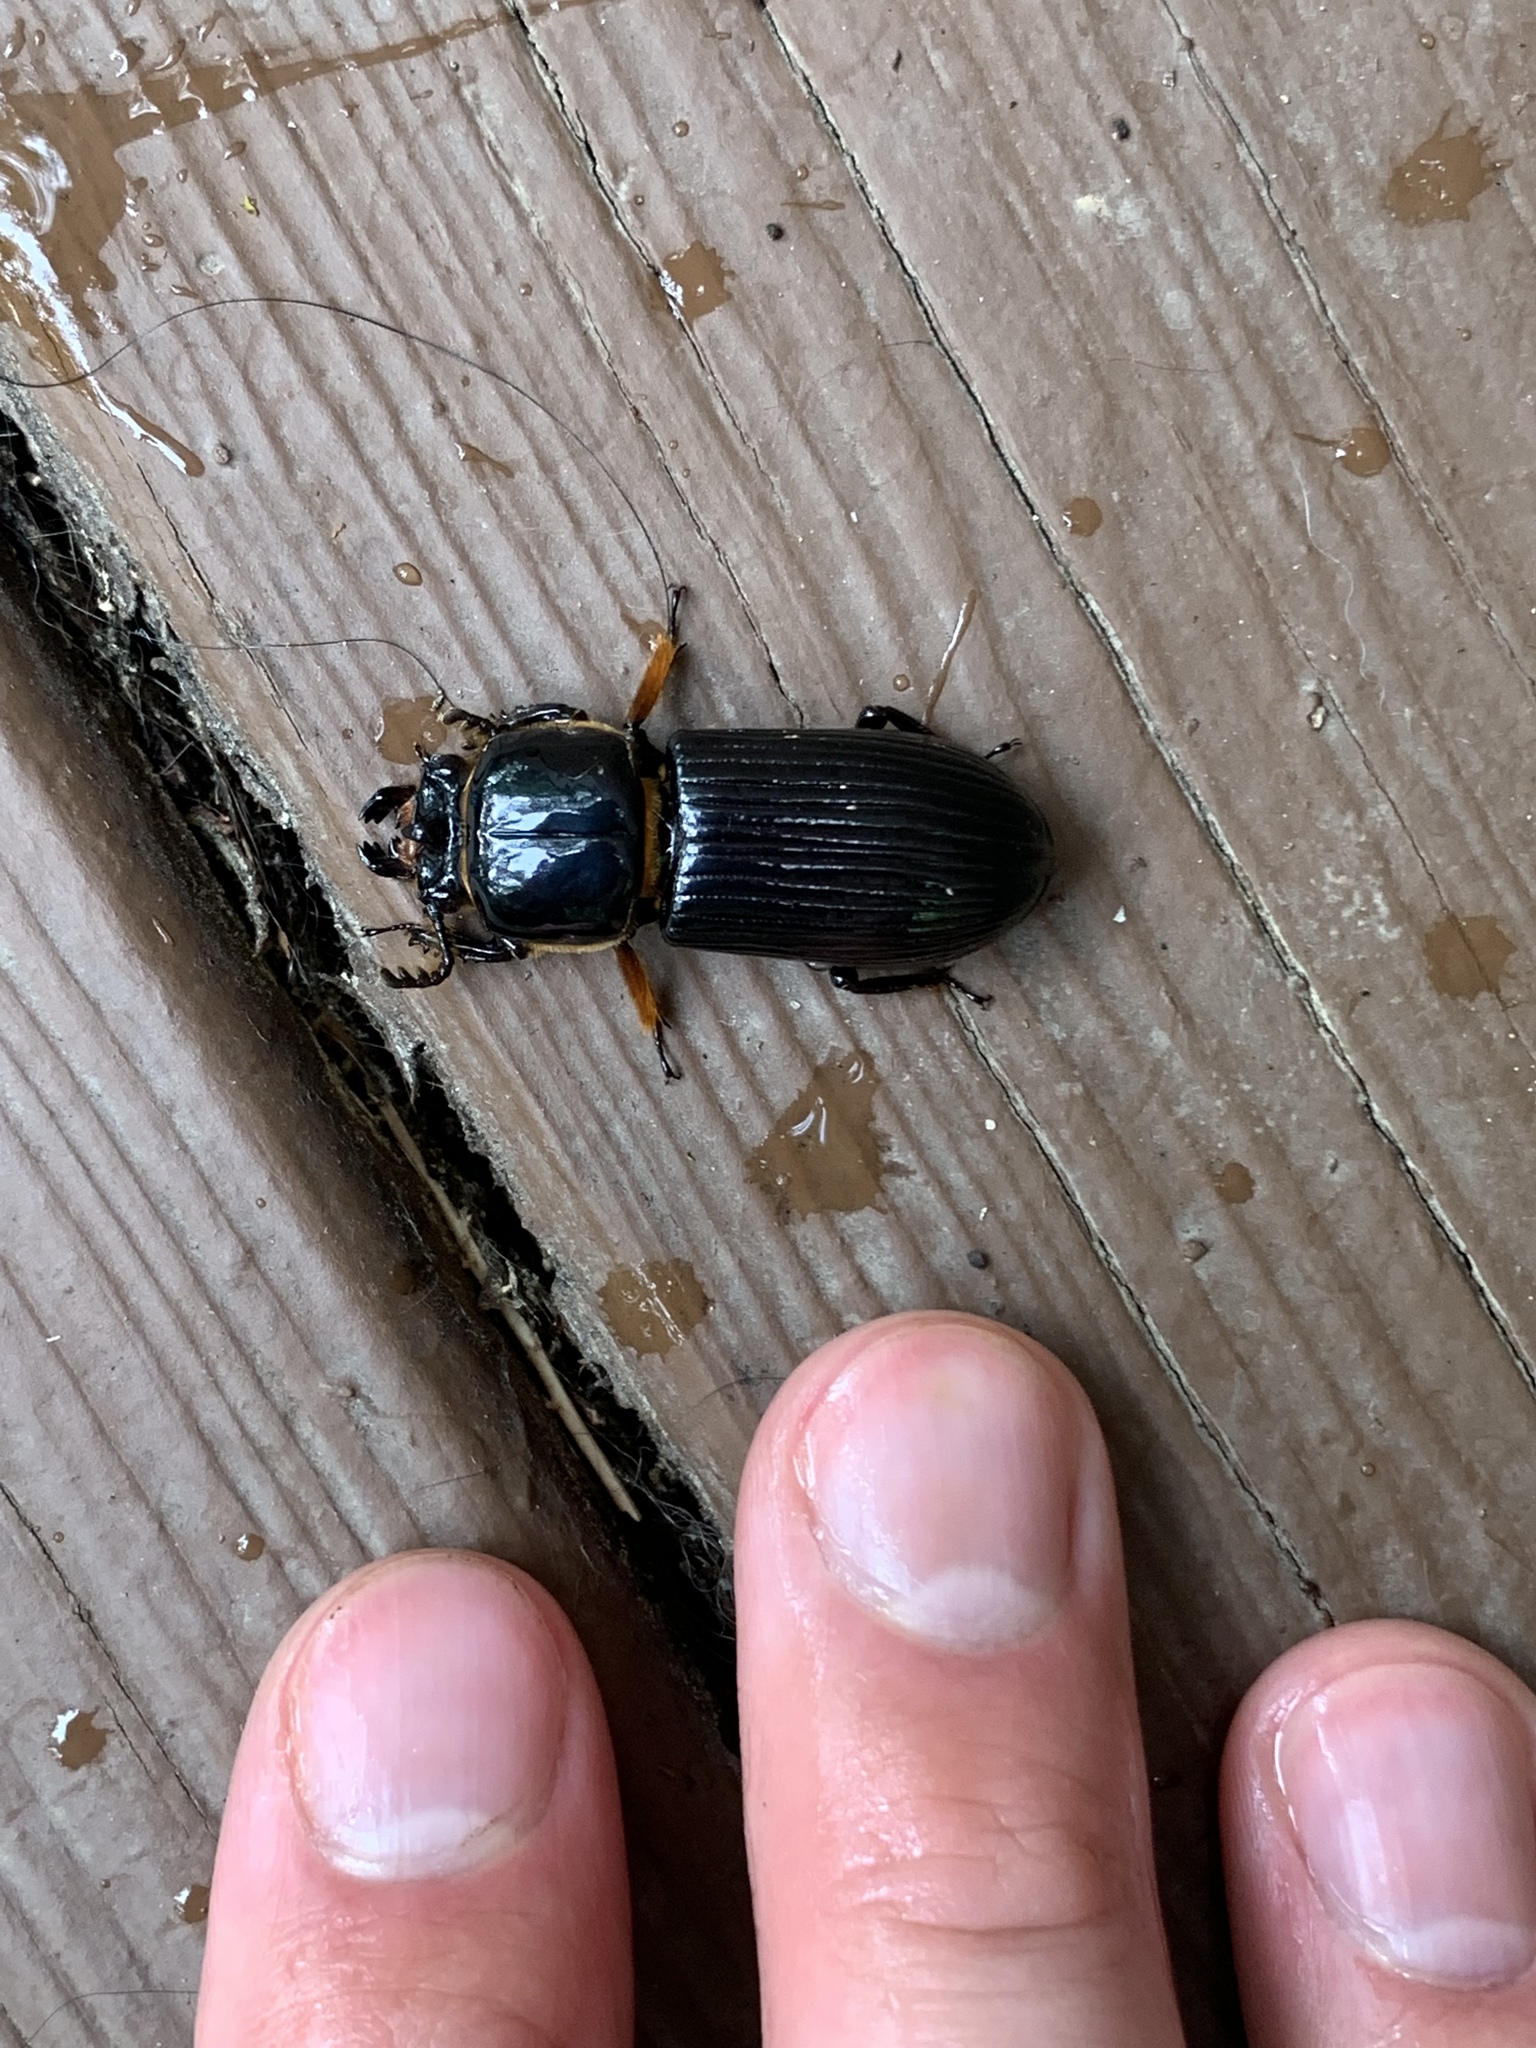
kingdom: Animalia
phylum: Arthropoda
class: Insecta
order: Coleoptera
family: Passalidae
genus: Odontotaenius
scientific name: Odontotaenius disjunctus
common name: Patent leather beetle
